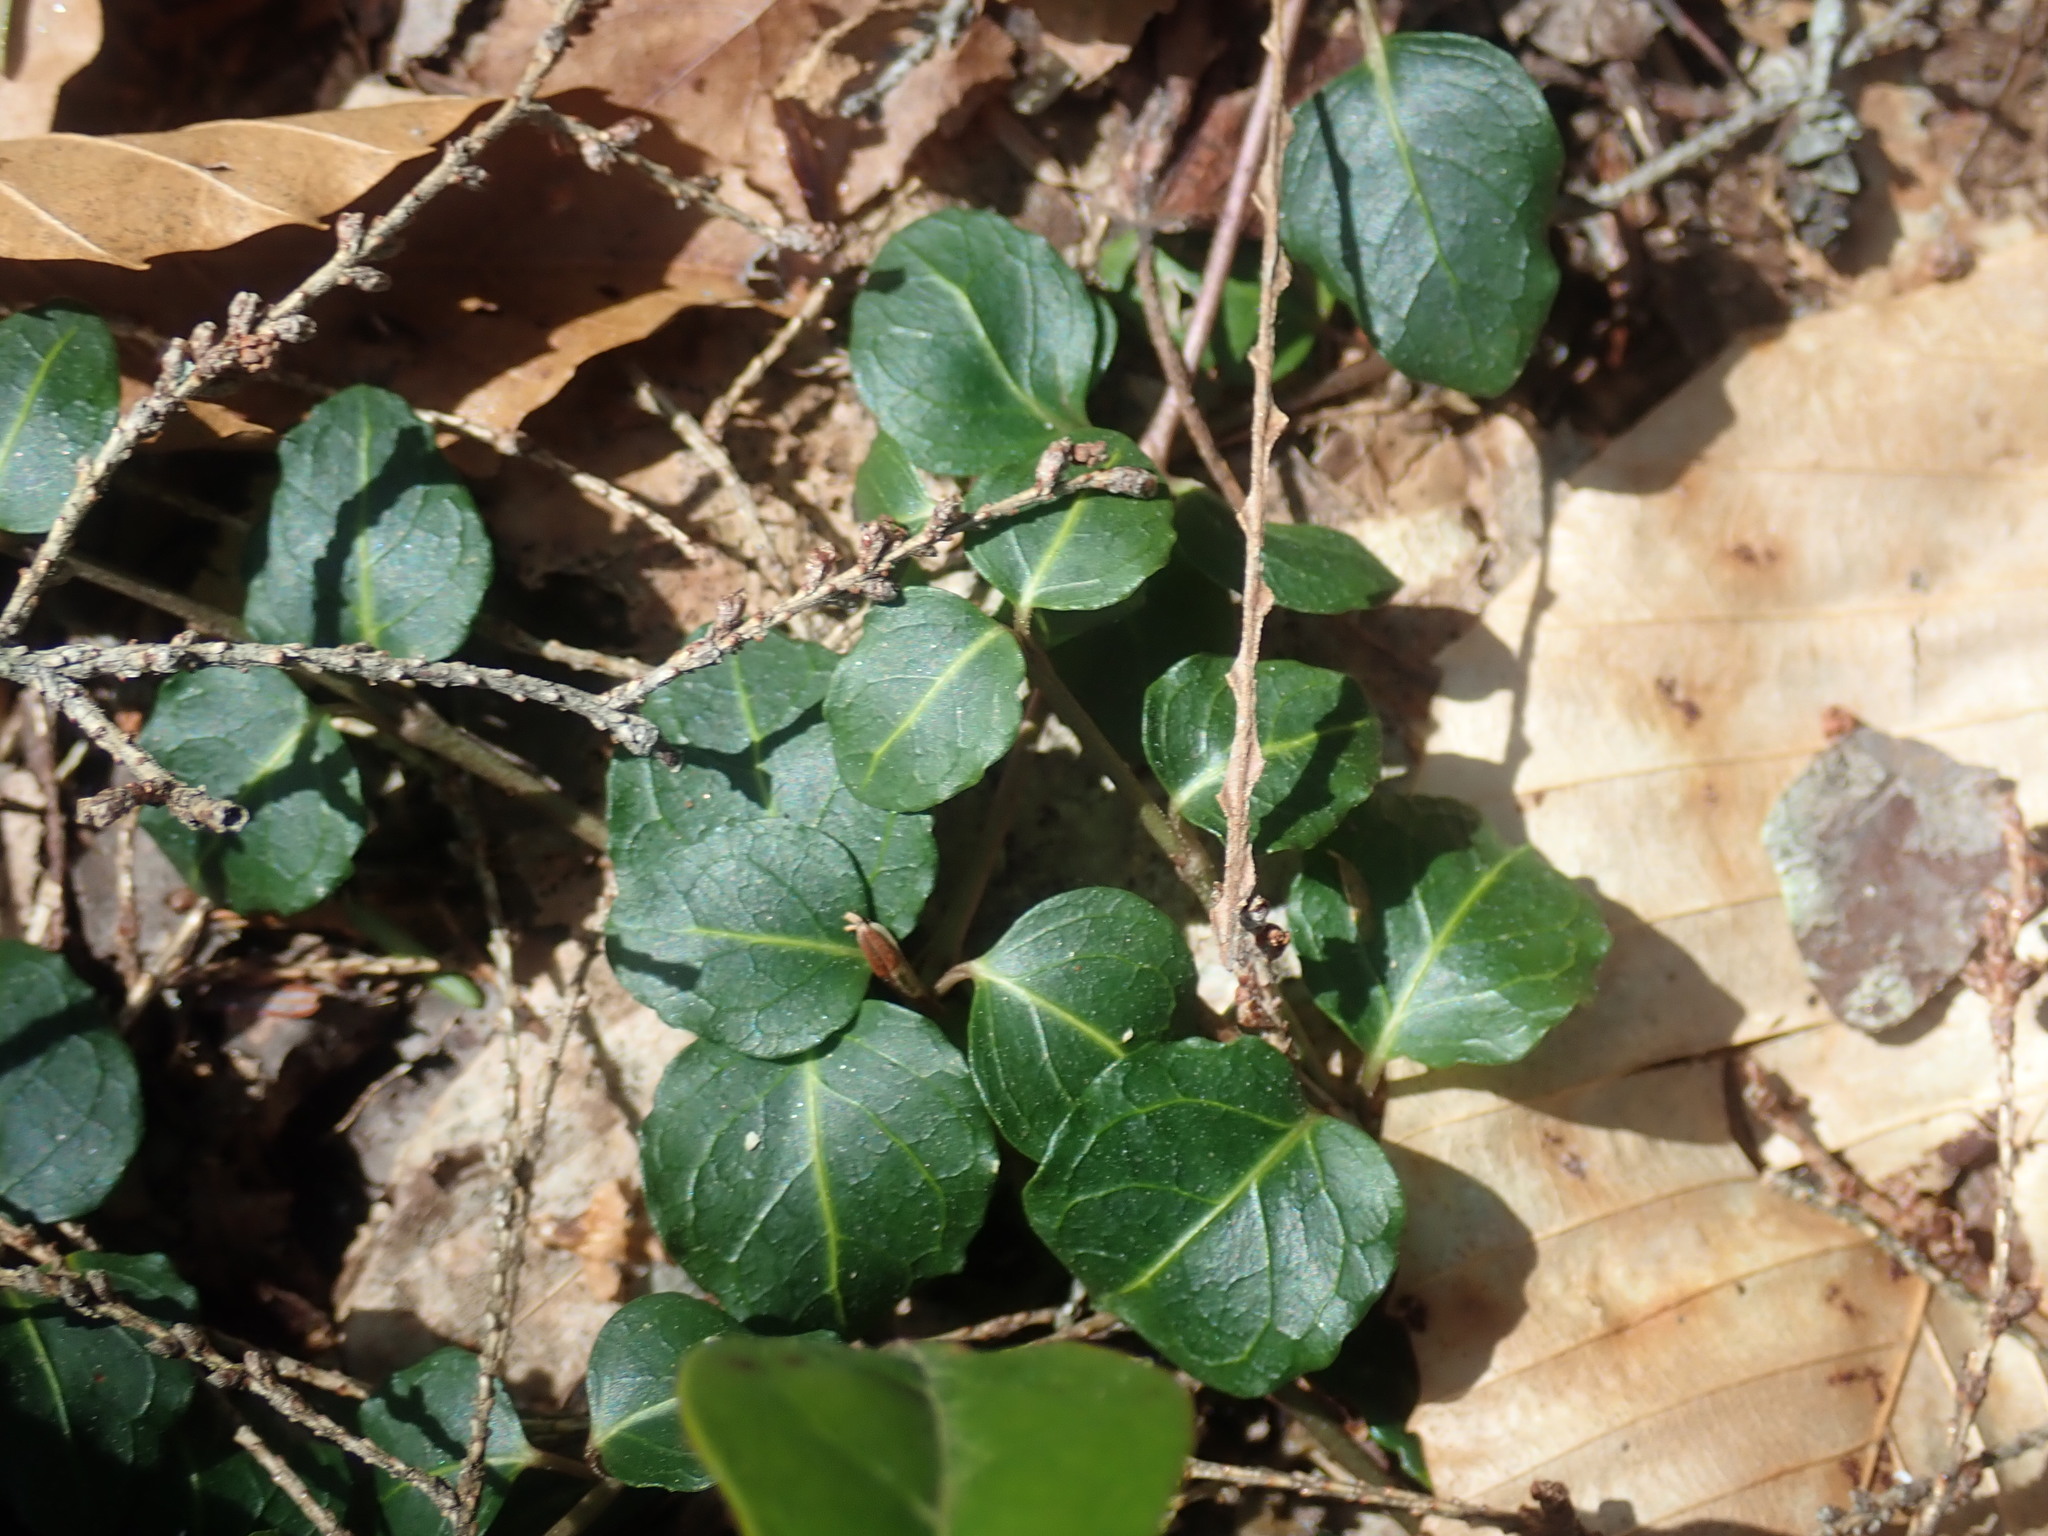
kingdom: Plantae
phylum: Tracheophyta
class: Magnoliopsida
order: Gentianales
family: Rubiaceae
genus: Mitchella
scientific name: Mitchella repens
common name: Partridge-berry
